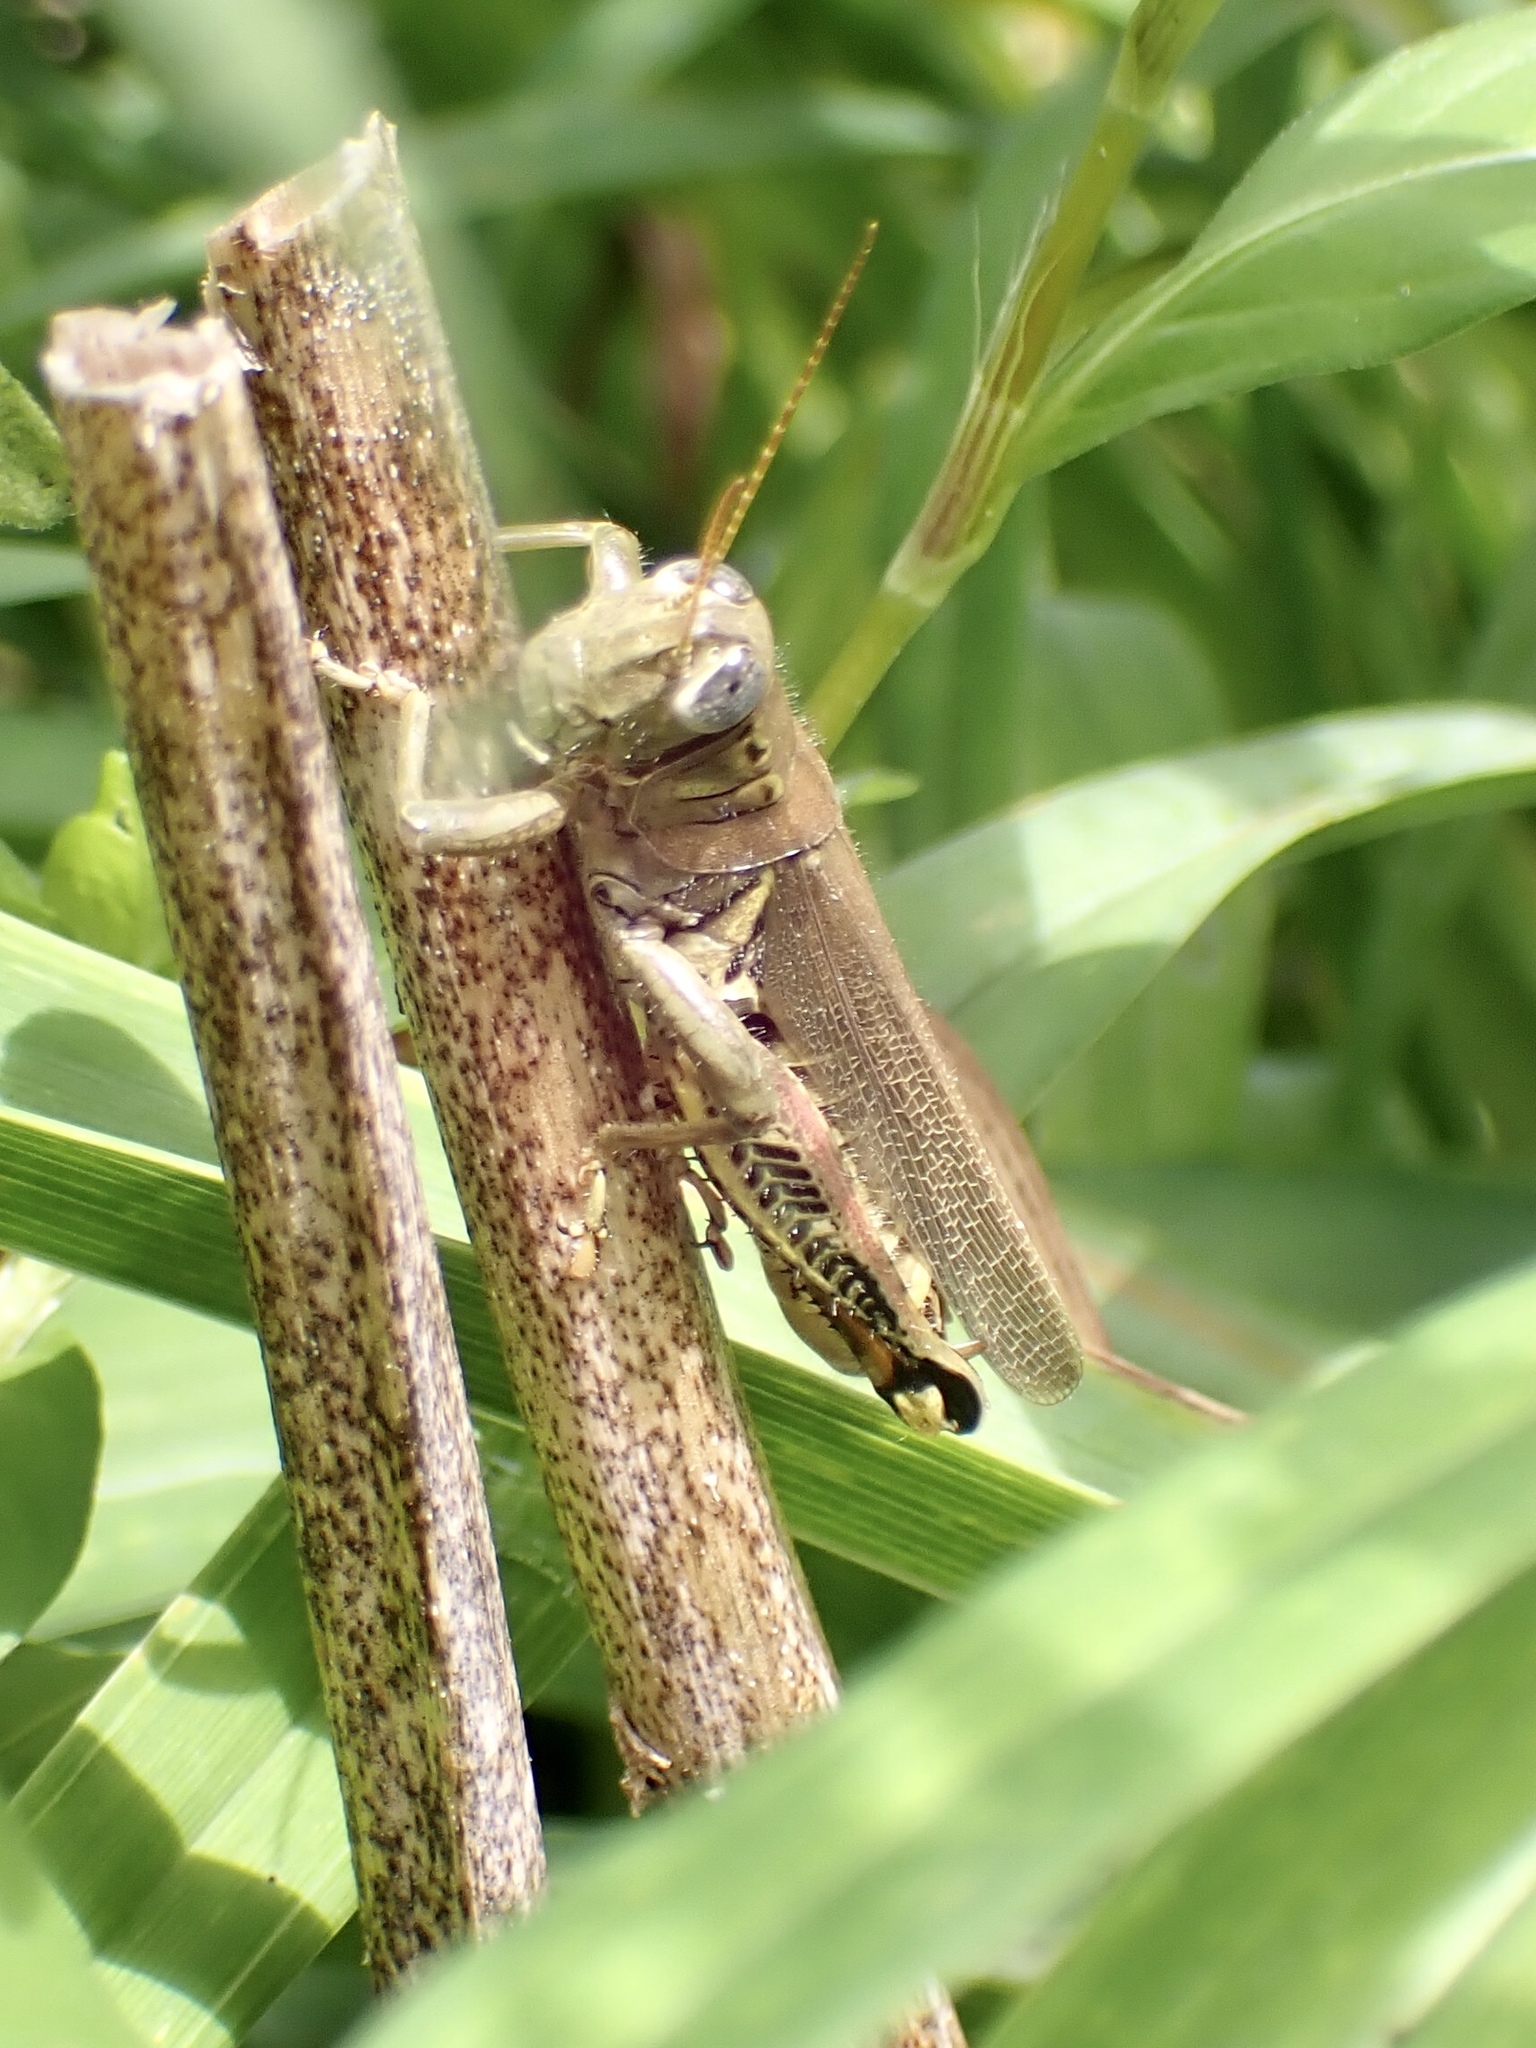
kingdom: Animalia
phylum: Arthropoda
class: Insecta
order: Orthoptera
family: Acrididae
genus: Melanoplus
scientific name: Melanoplus differentialis
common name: Differential grasshopper
